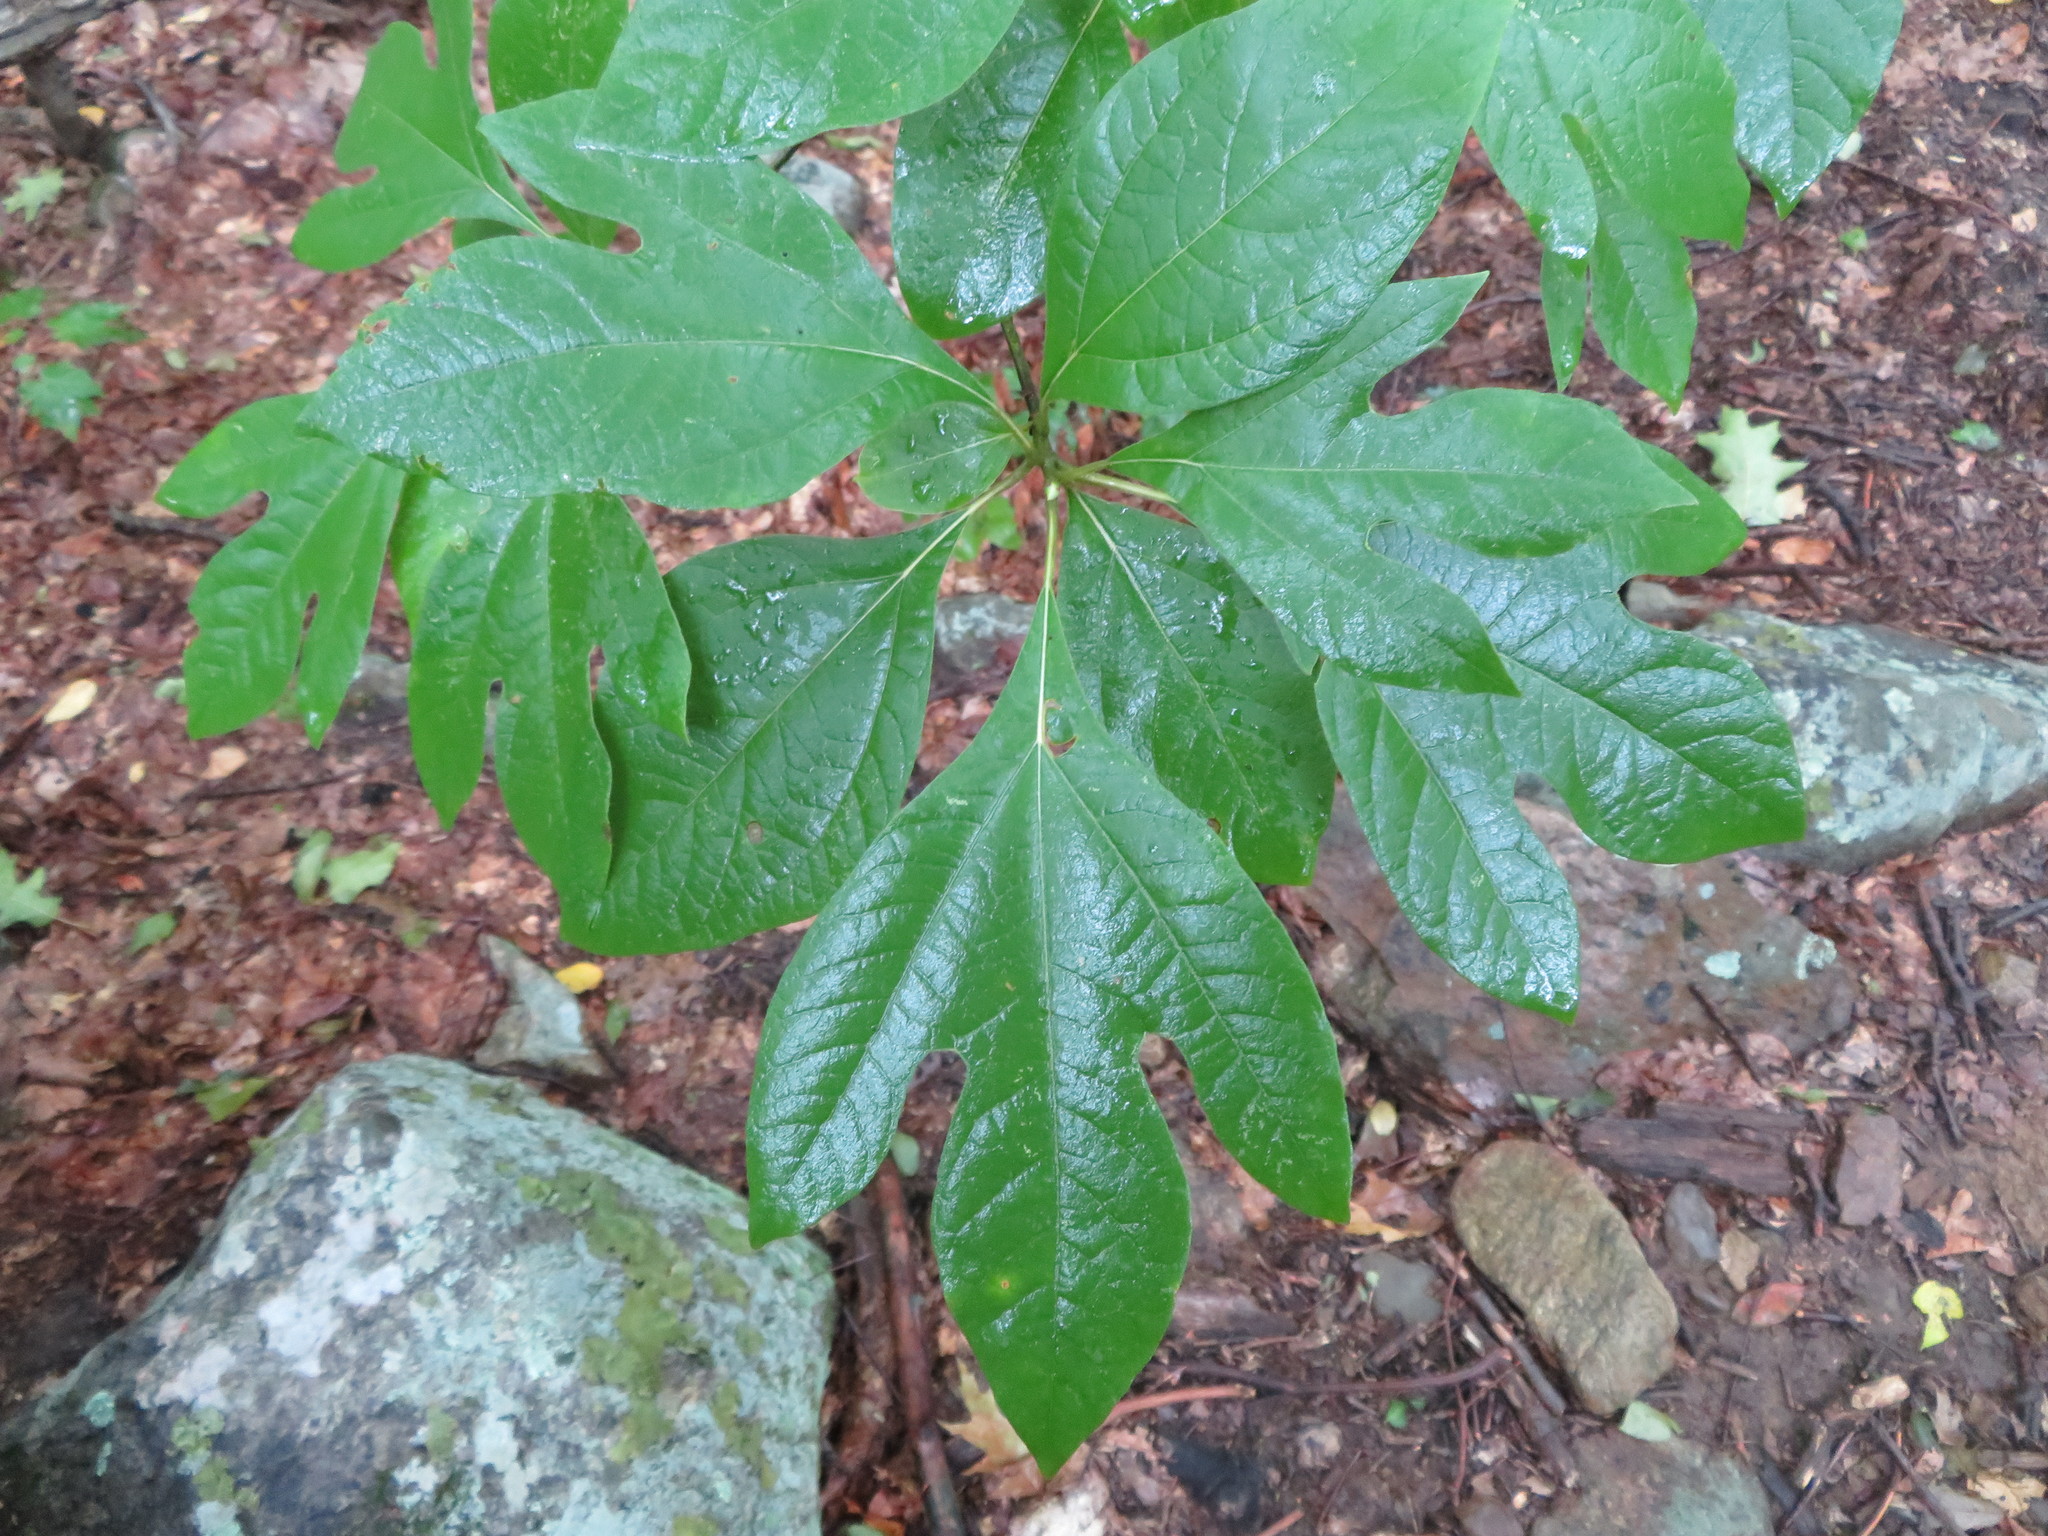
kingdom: Plantae
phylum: Tracheophyta
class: Magnoliopsida
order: Laurales
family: Lauraceae
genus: Sassafras
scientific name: Sassafras albidum
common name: Sassafras
